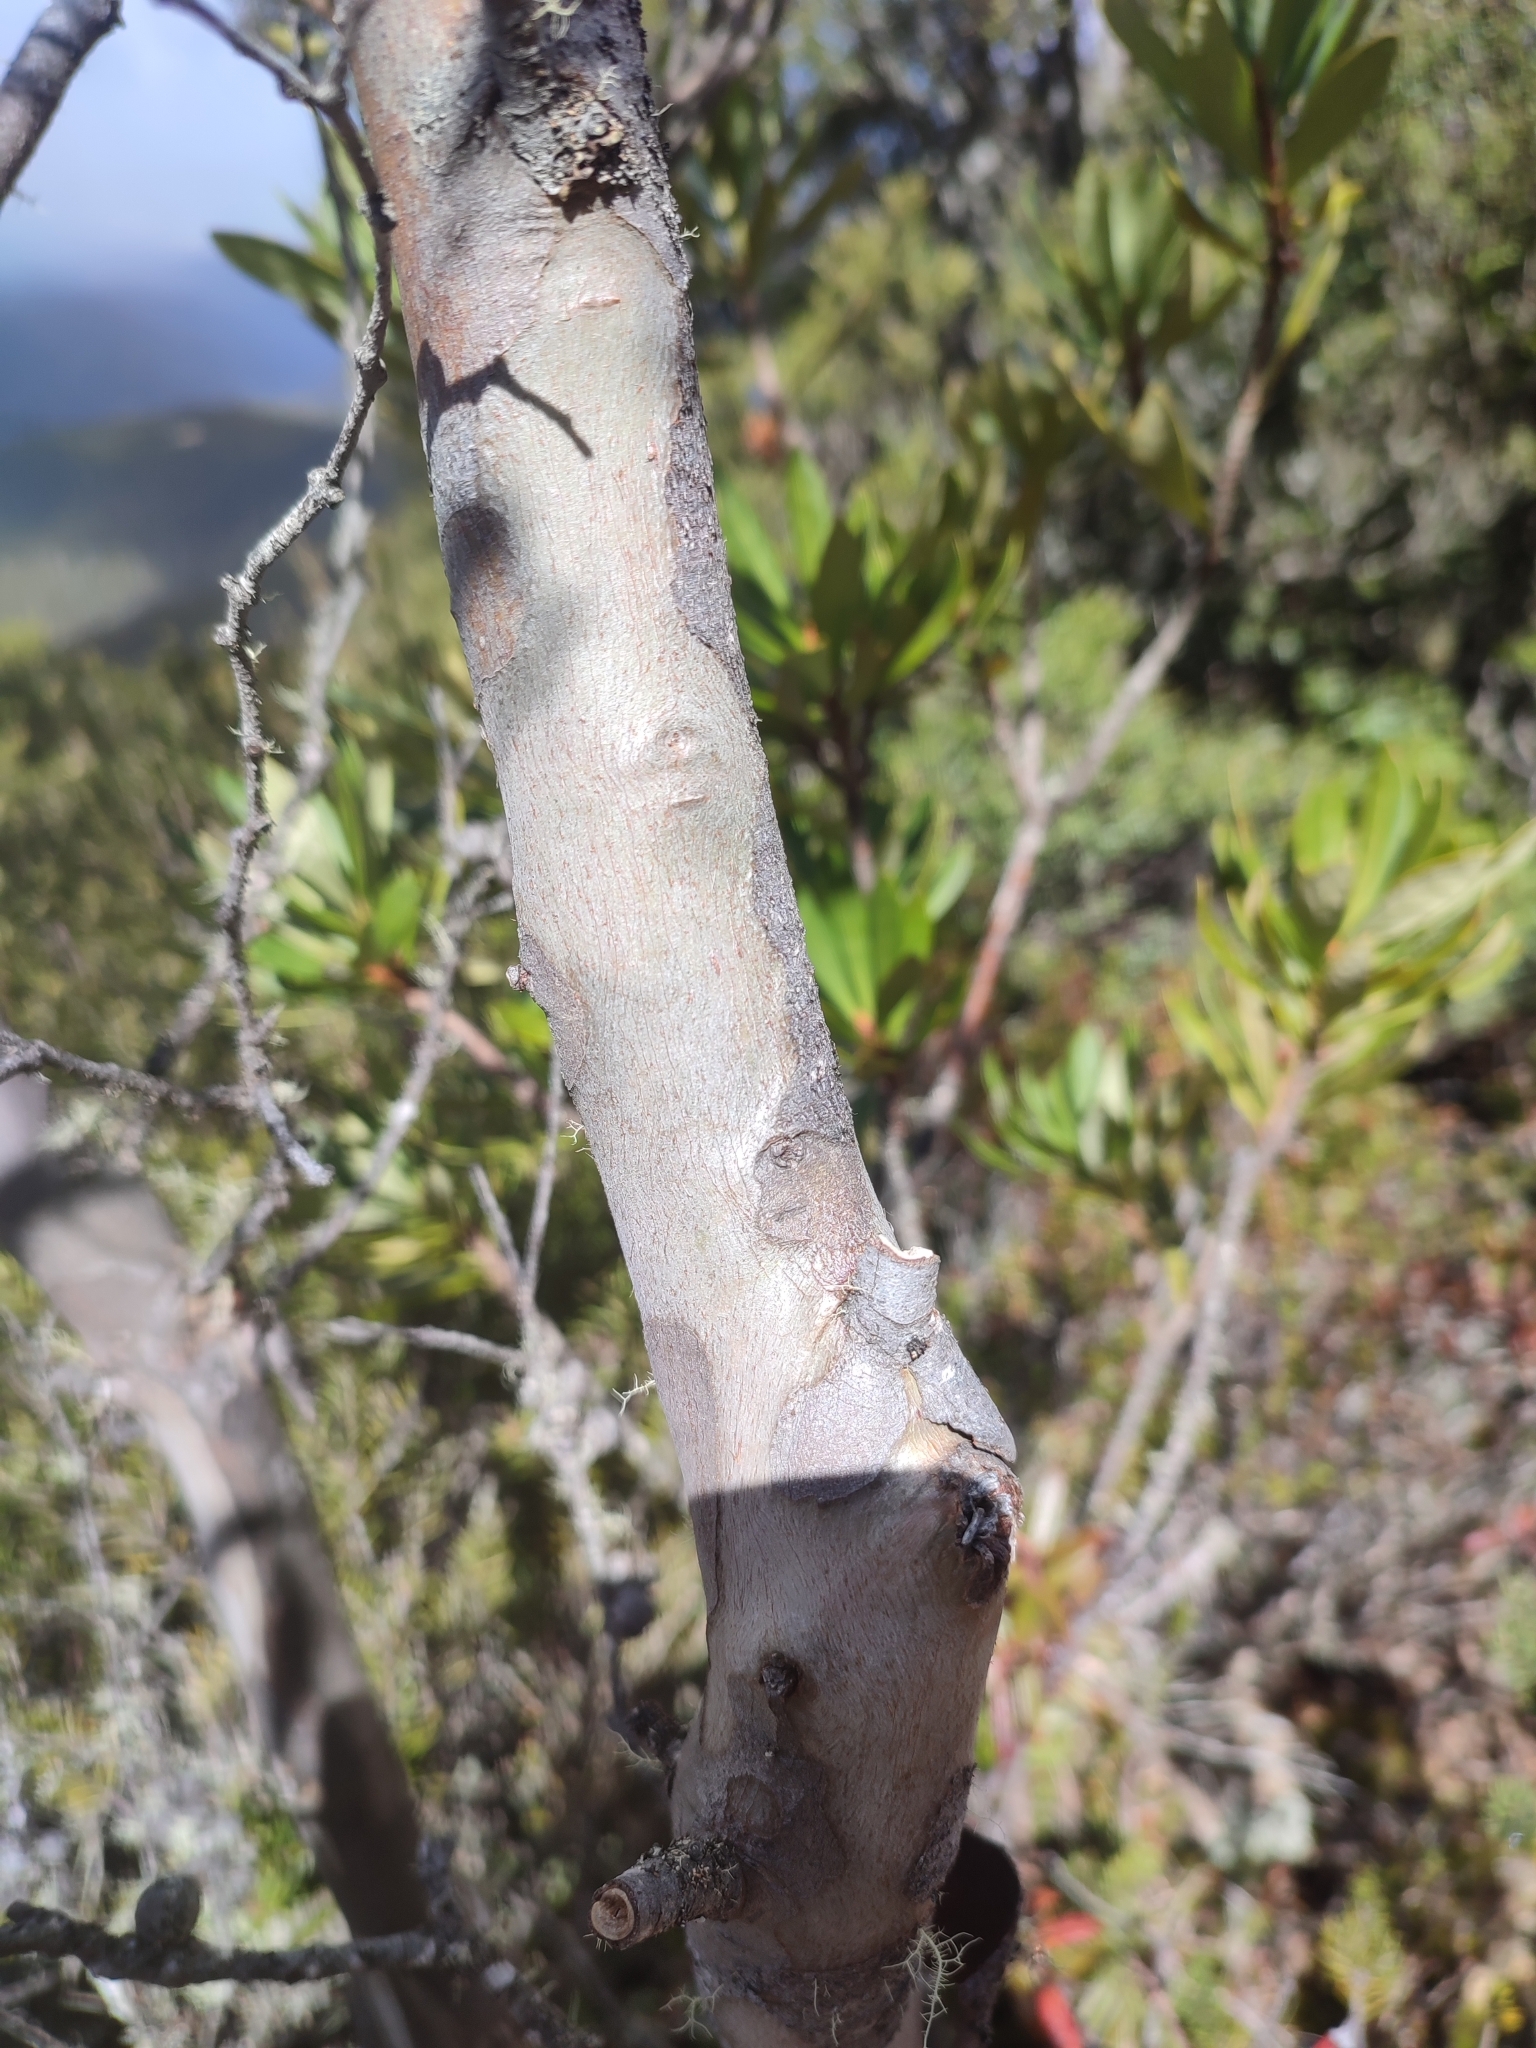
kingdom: Plantae
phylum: Tracheophyta
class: Magnoliopsida
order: Myrtales
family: Myrtaceae
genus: Eucalyptus
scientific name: Eucalyptus coccifera
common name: Tasmanian snow-gum
